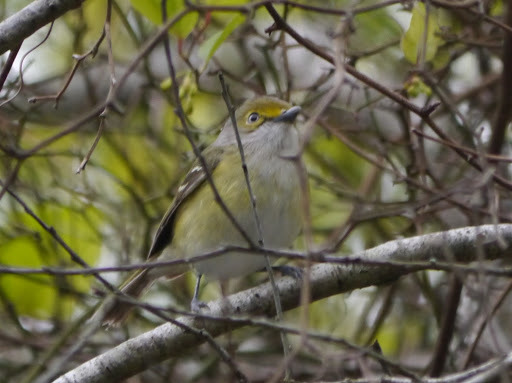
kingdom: Animalia
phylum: Chordata
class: Aves
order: Passeriformes
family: Vireonidae
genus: Vireo
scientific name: Vireo griseus
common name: White-eyed vireo
